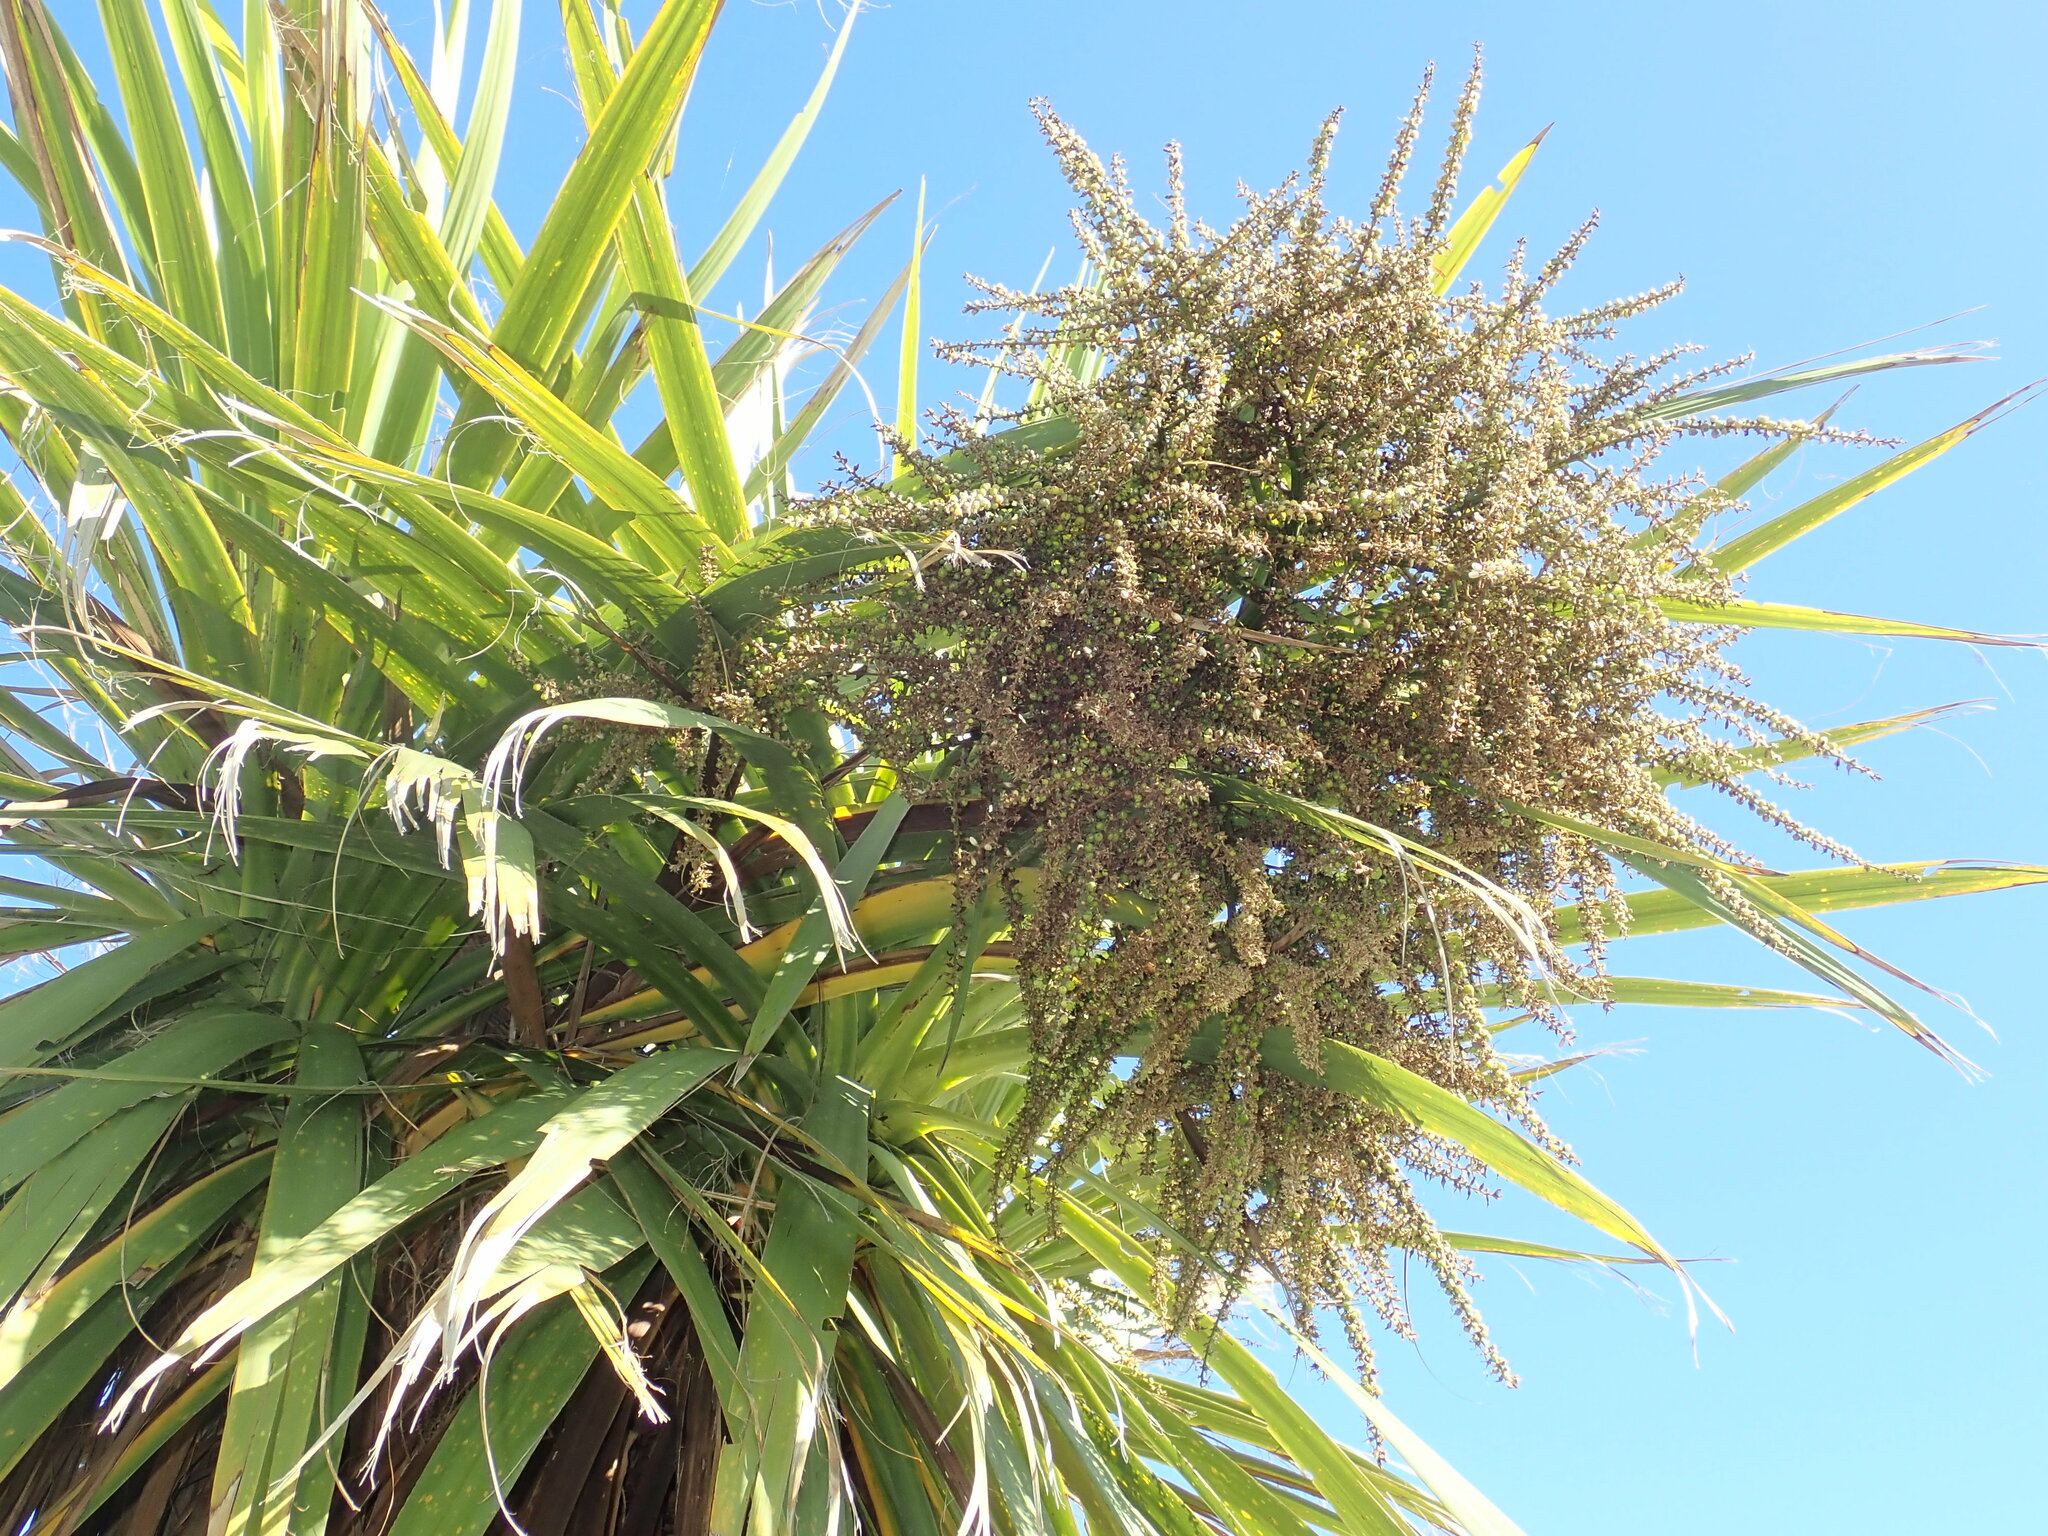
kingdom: Plantae
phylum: Tracheophyta
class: Liliopsida
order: Asparagales
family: Asparagaceae
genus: Cordyline
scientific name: Cordyline australis
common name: Cabbage-palm
